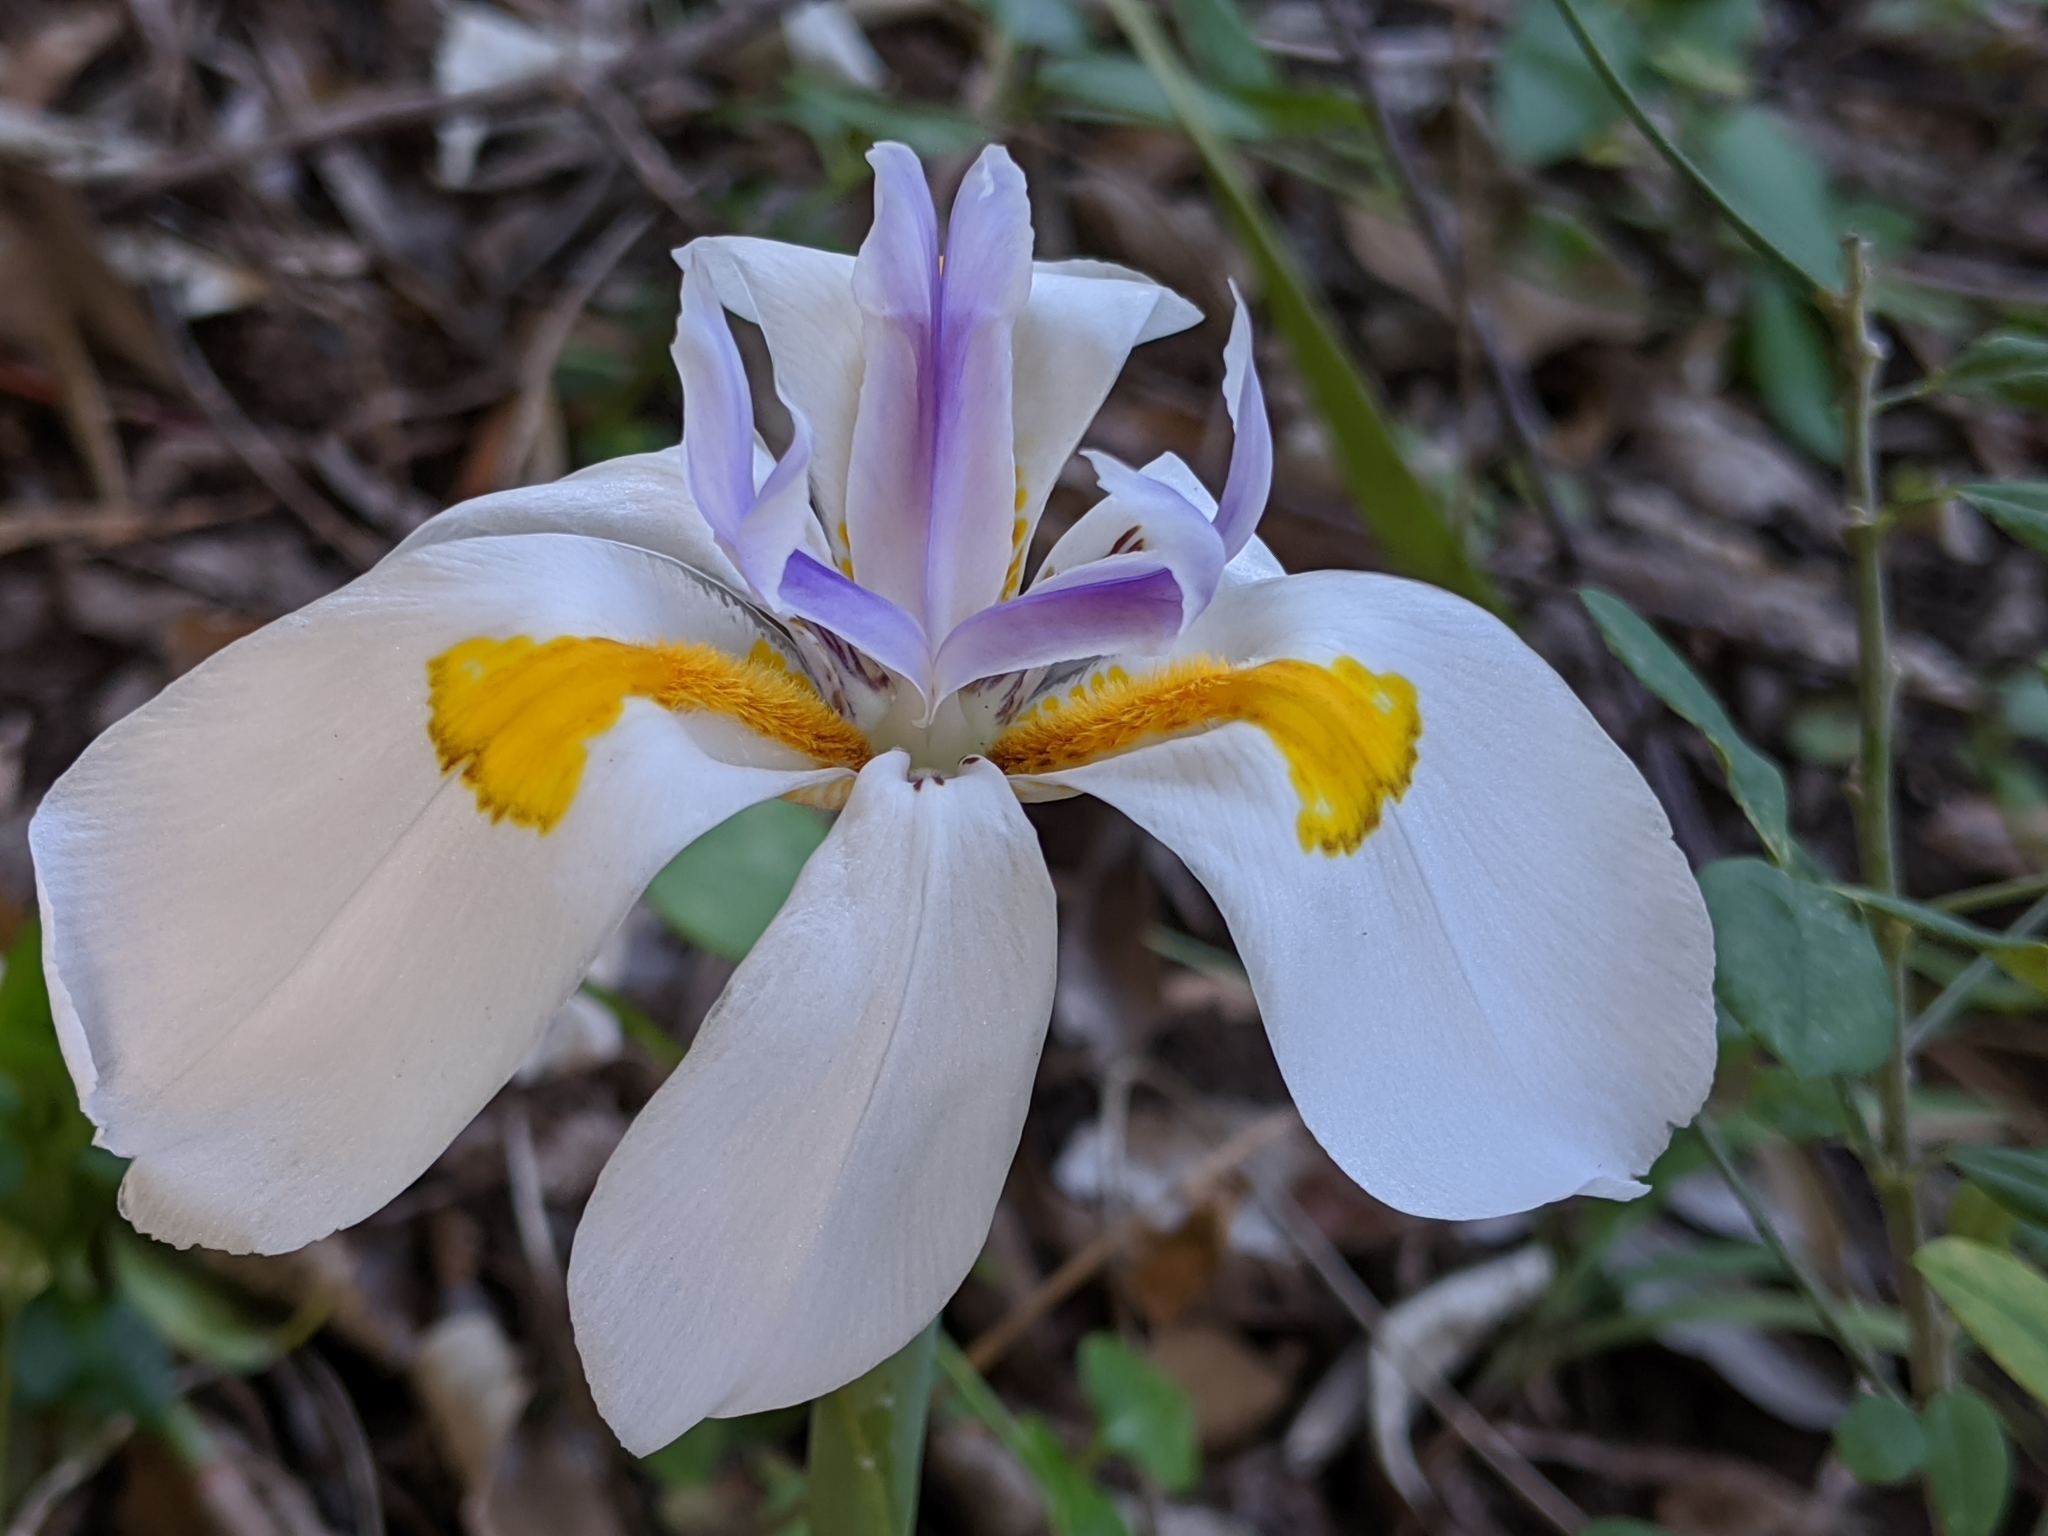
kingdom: Plantae
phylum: Tracheophyta
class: Liliopsida
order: Asparagales
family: Iridaceae
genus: Dietes
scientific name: Dietes grandiflora
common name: Wild iris
